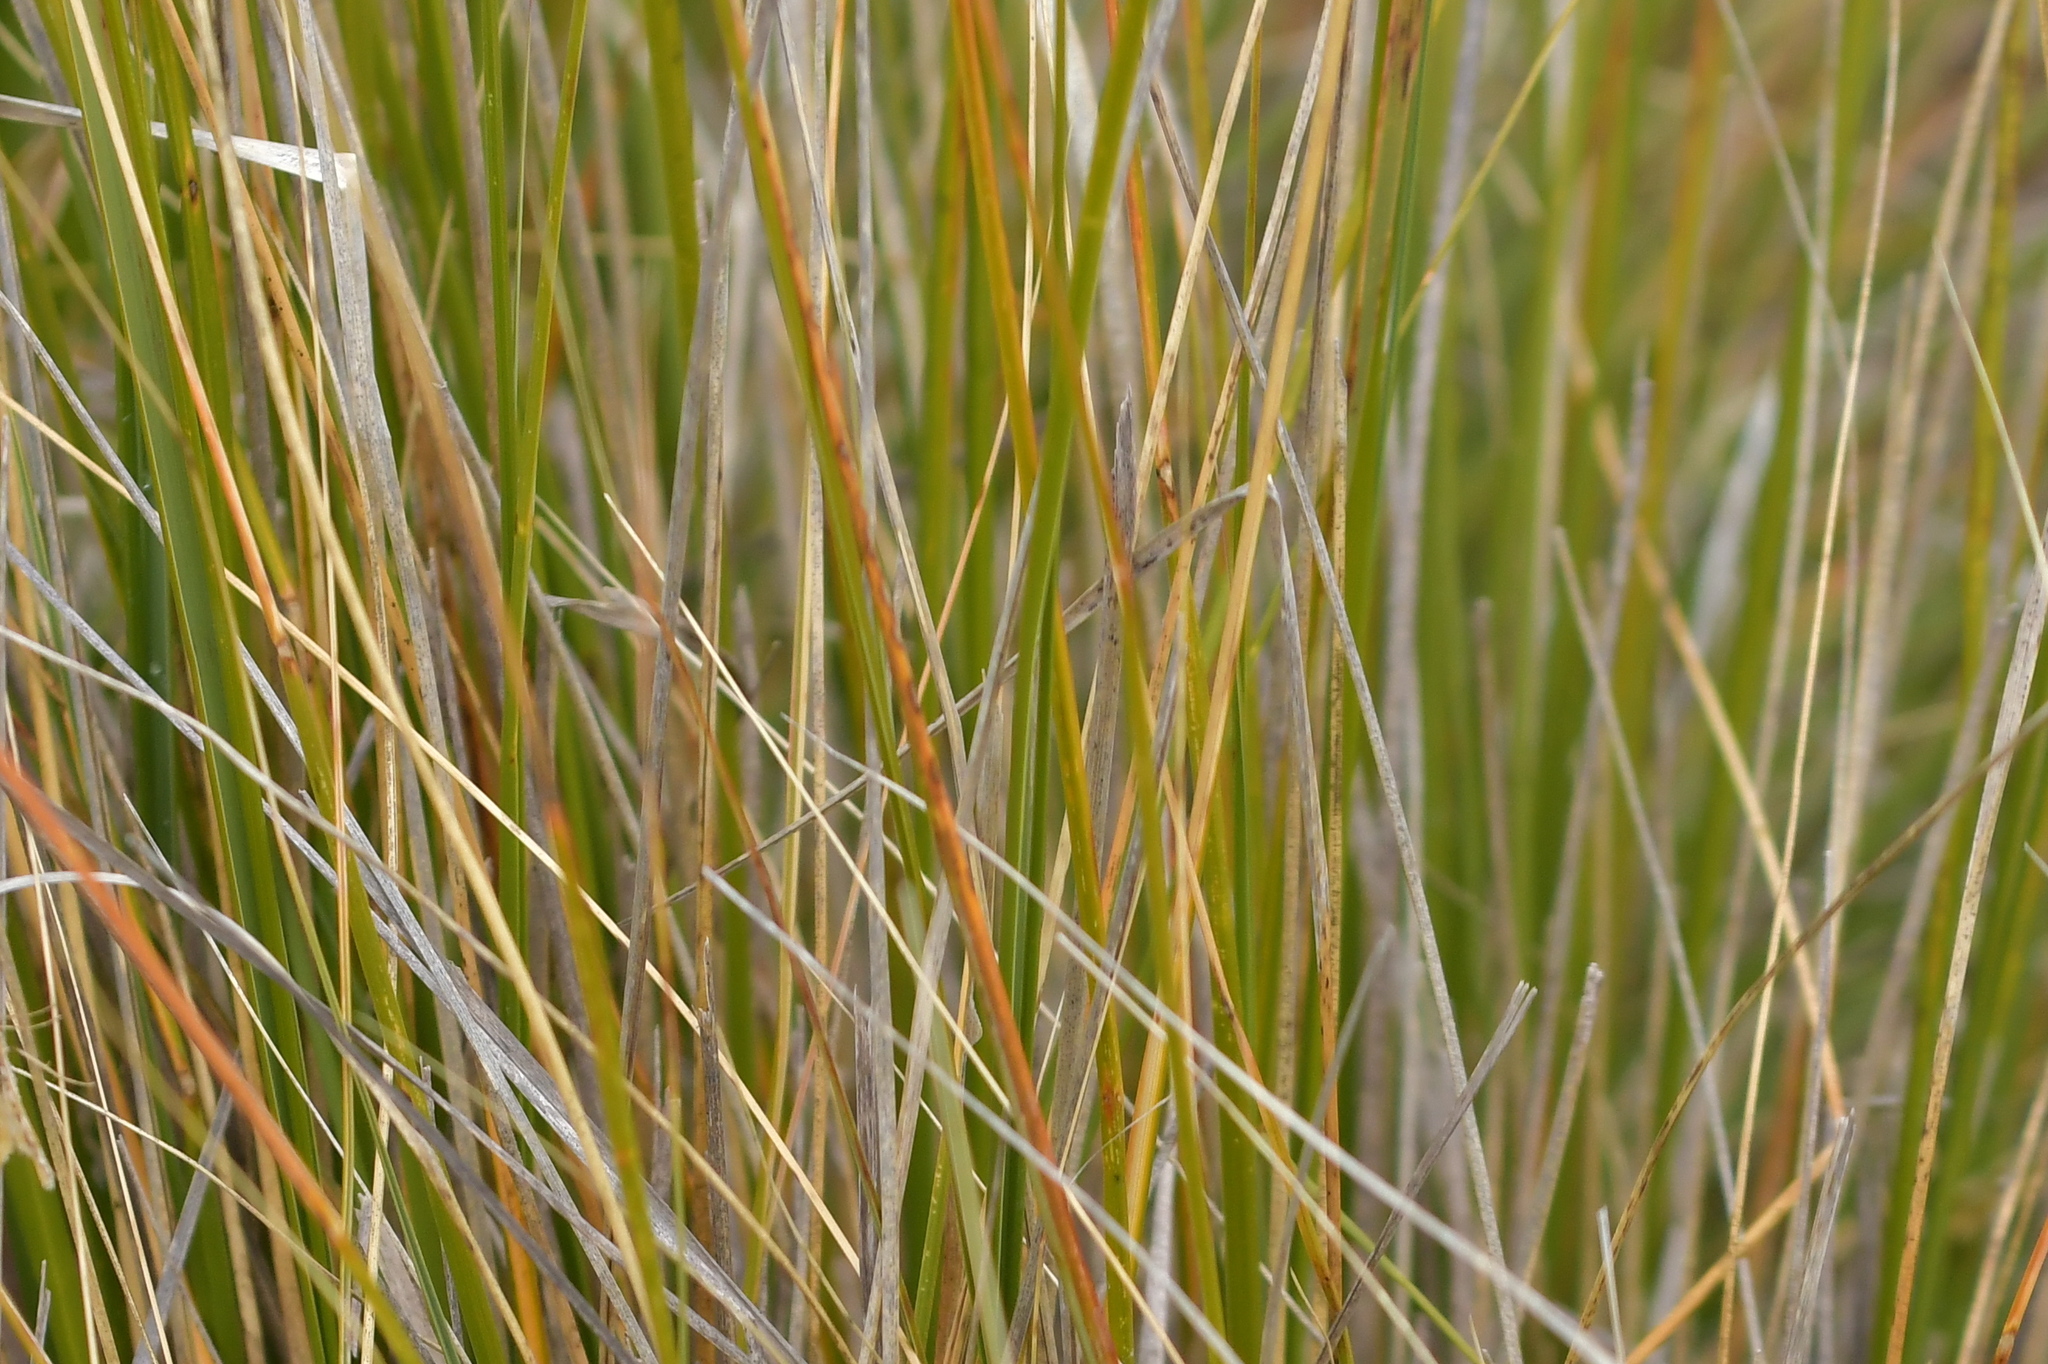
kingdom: Plantae
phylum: Tracheophyta
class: Liliopsida
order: Poales
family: Poaceae
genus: Chionochloa
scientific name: Chionochloa macra
